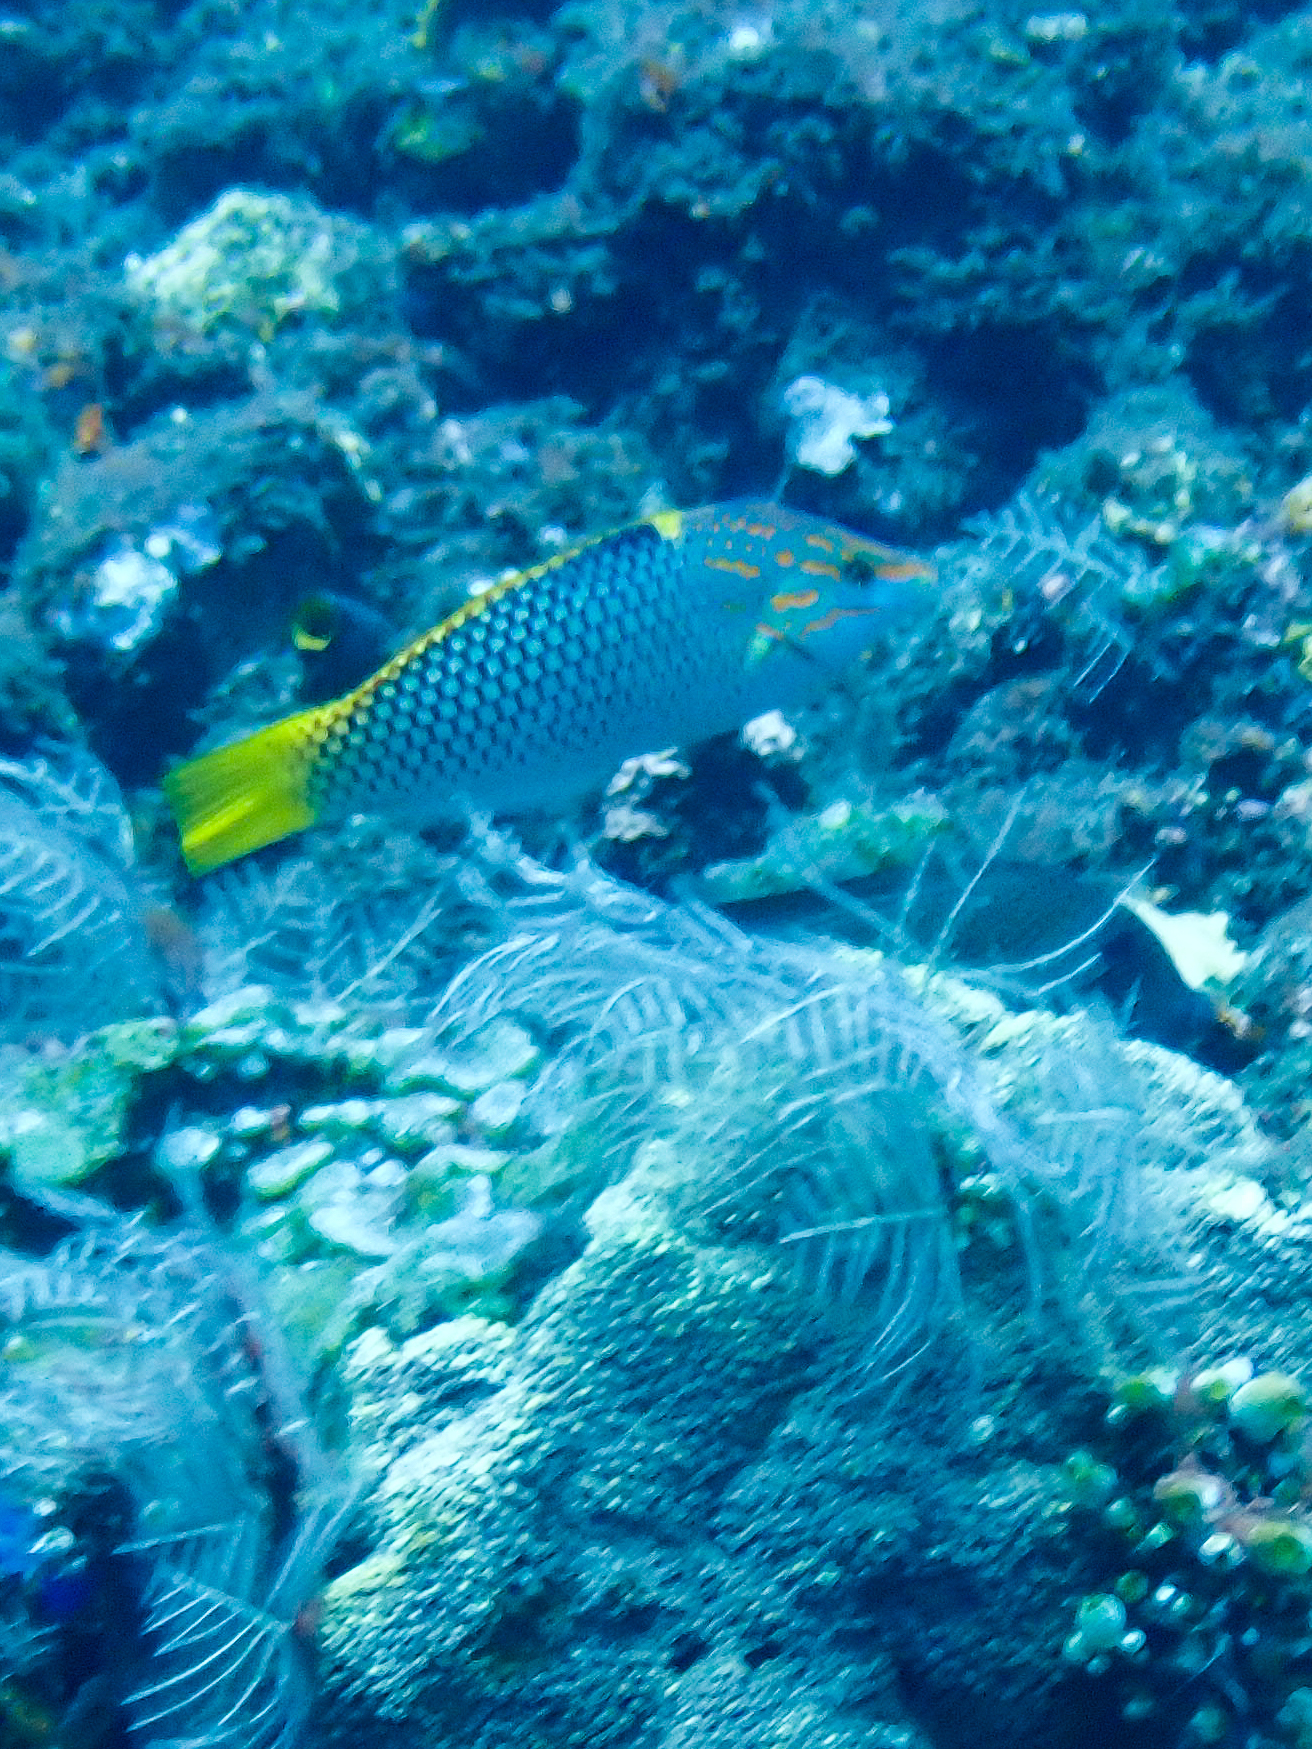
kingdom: Animalia
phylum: Chordata
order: Perciformes
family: Labridae
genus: Halichoeres
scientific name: Halichoeres hortulanus
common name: Checkerboard wrasse
